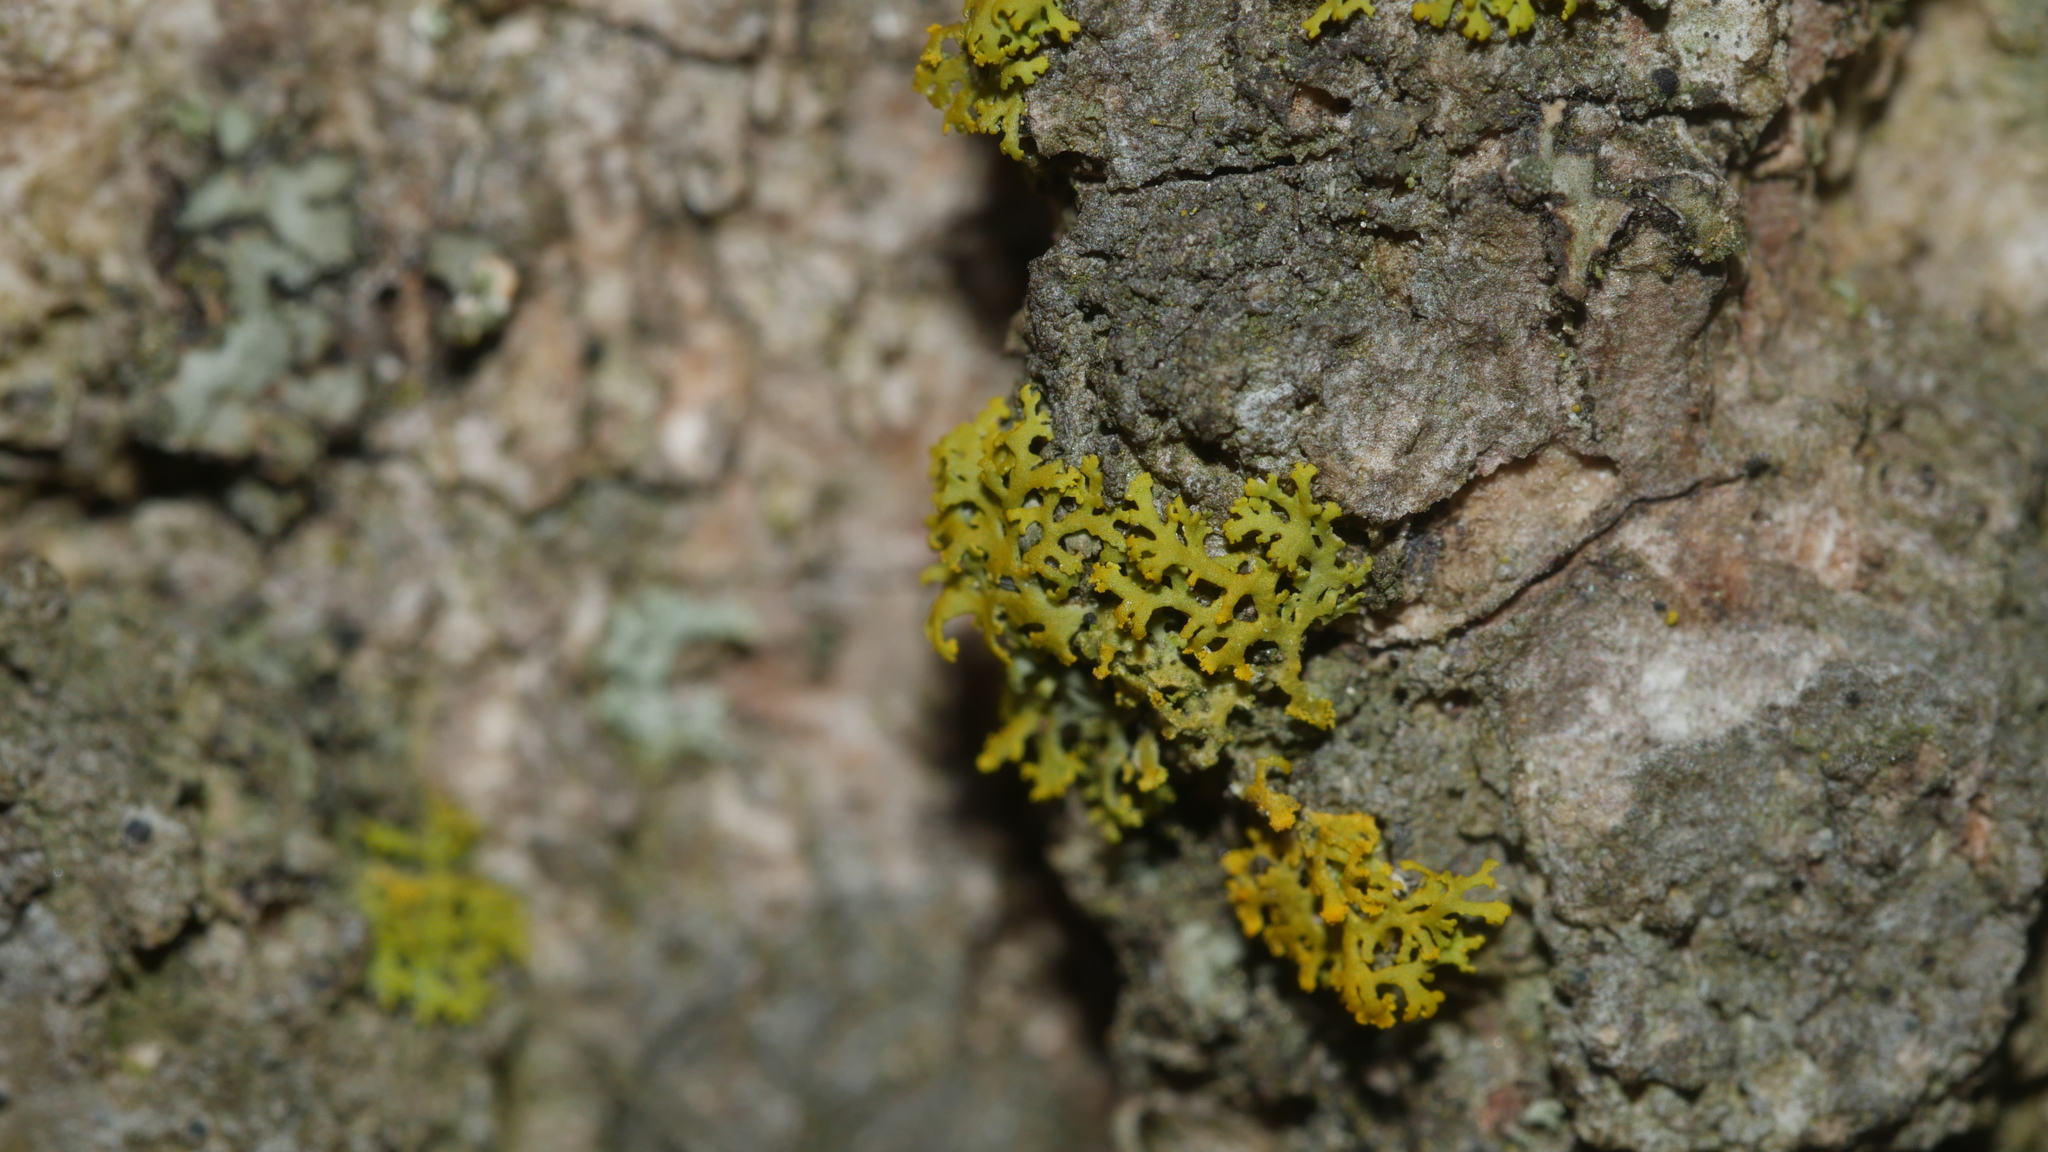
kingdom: Fungi
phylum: Ascomycota
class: Candelariomycetes
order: Candelariales
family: Candelariaceae
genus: Candelaria
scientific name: Candelaria concolor
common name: Candleflame lichen
